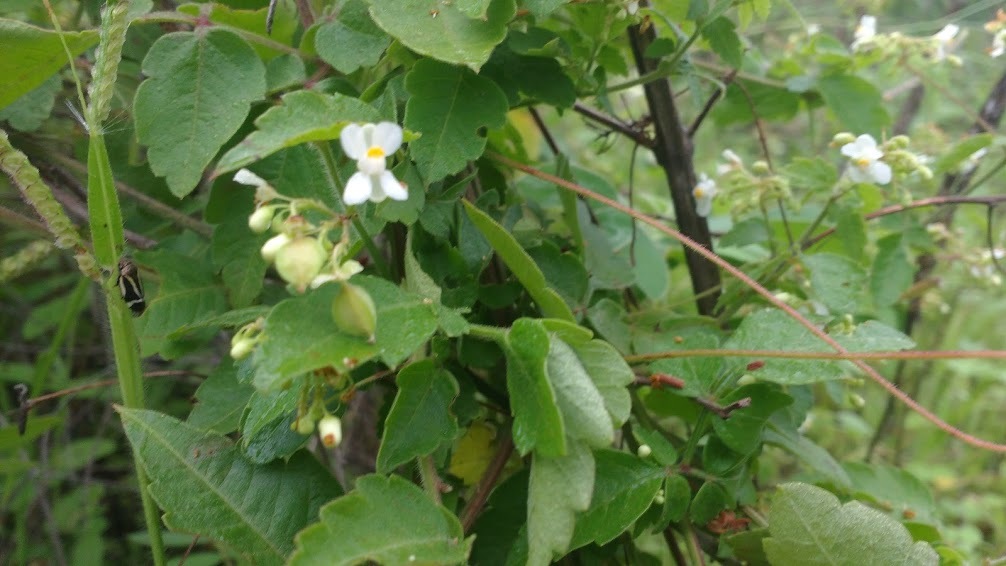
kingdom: Plantae
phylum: Tracheophyta
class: Magnoliopsida
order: Sapindales
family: Sapindaceae
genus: Cardiospermum
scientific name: Cardiospermum corindum
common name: Faux persil
